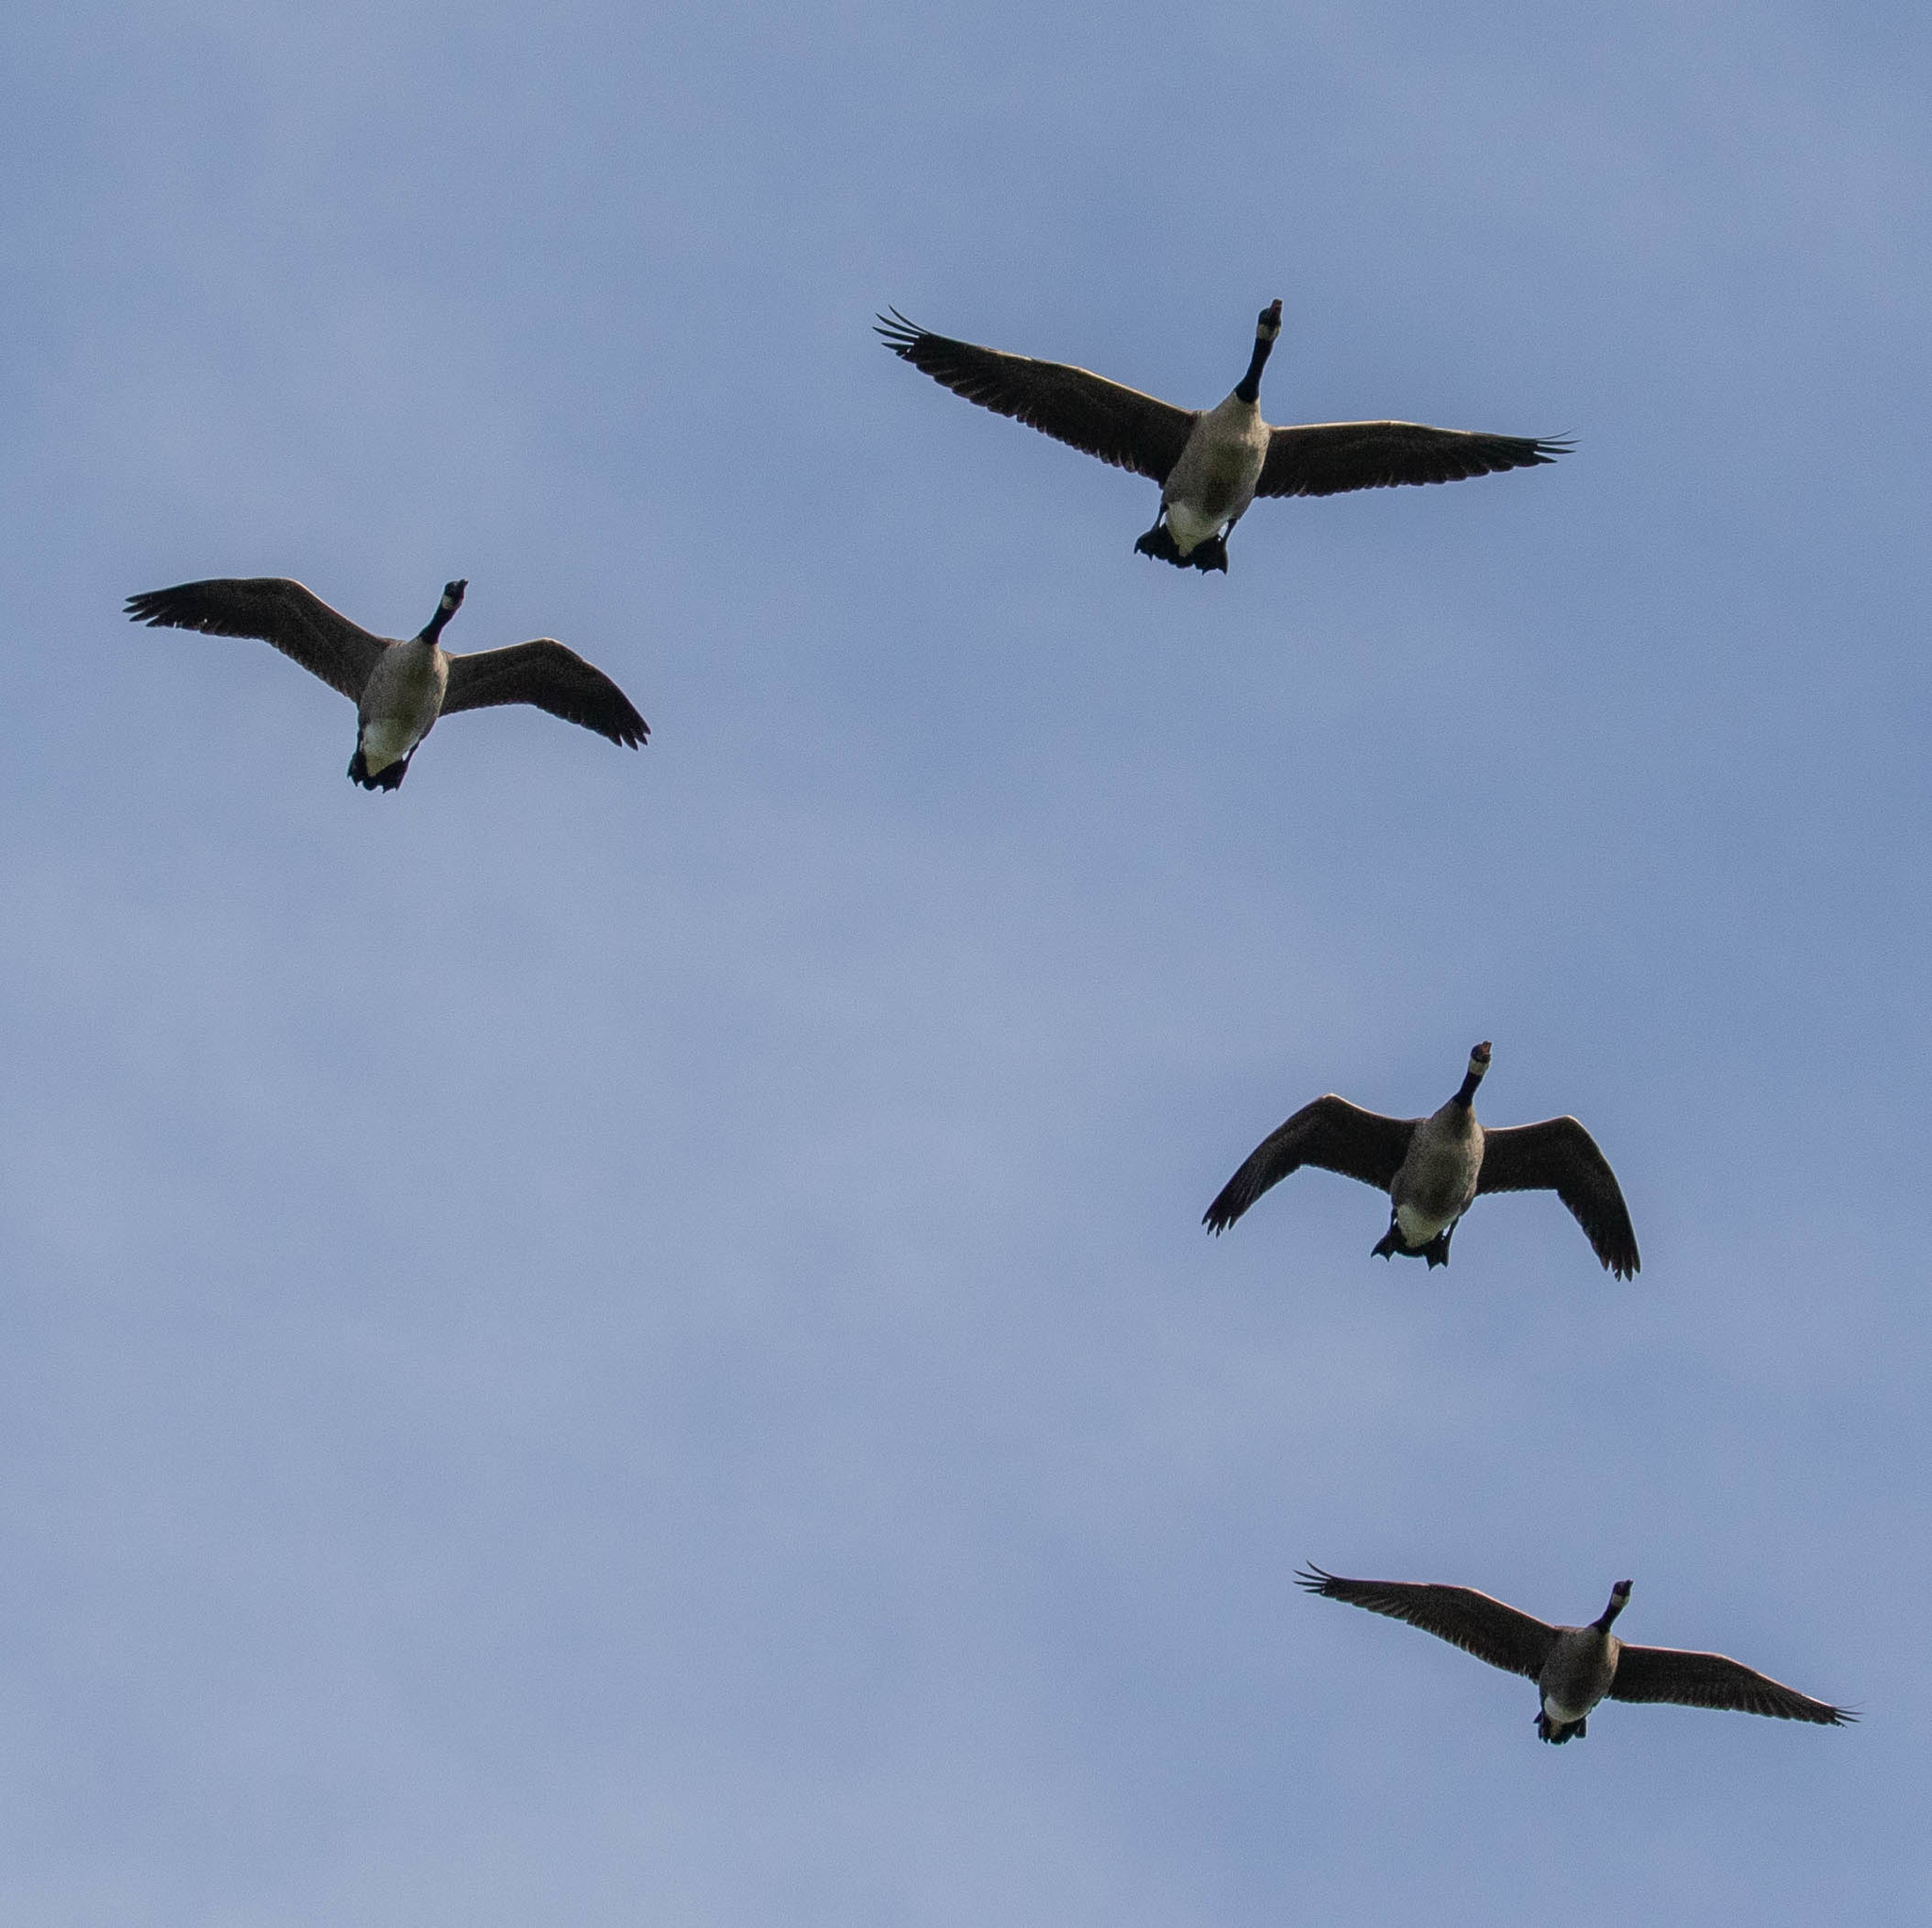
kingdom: Animalia
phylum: Chordata
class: Aves
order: Anseriformes
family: Anatidae
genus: Branta
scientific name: Branta canadensis
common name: Canada goose
